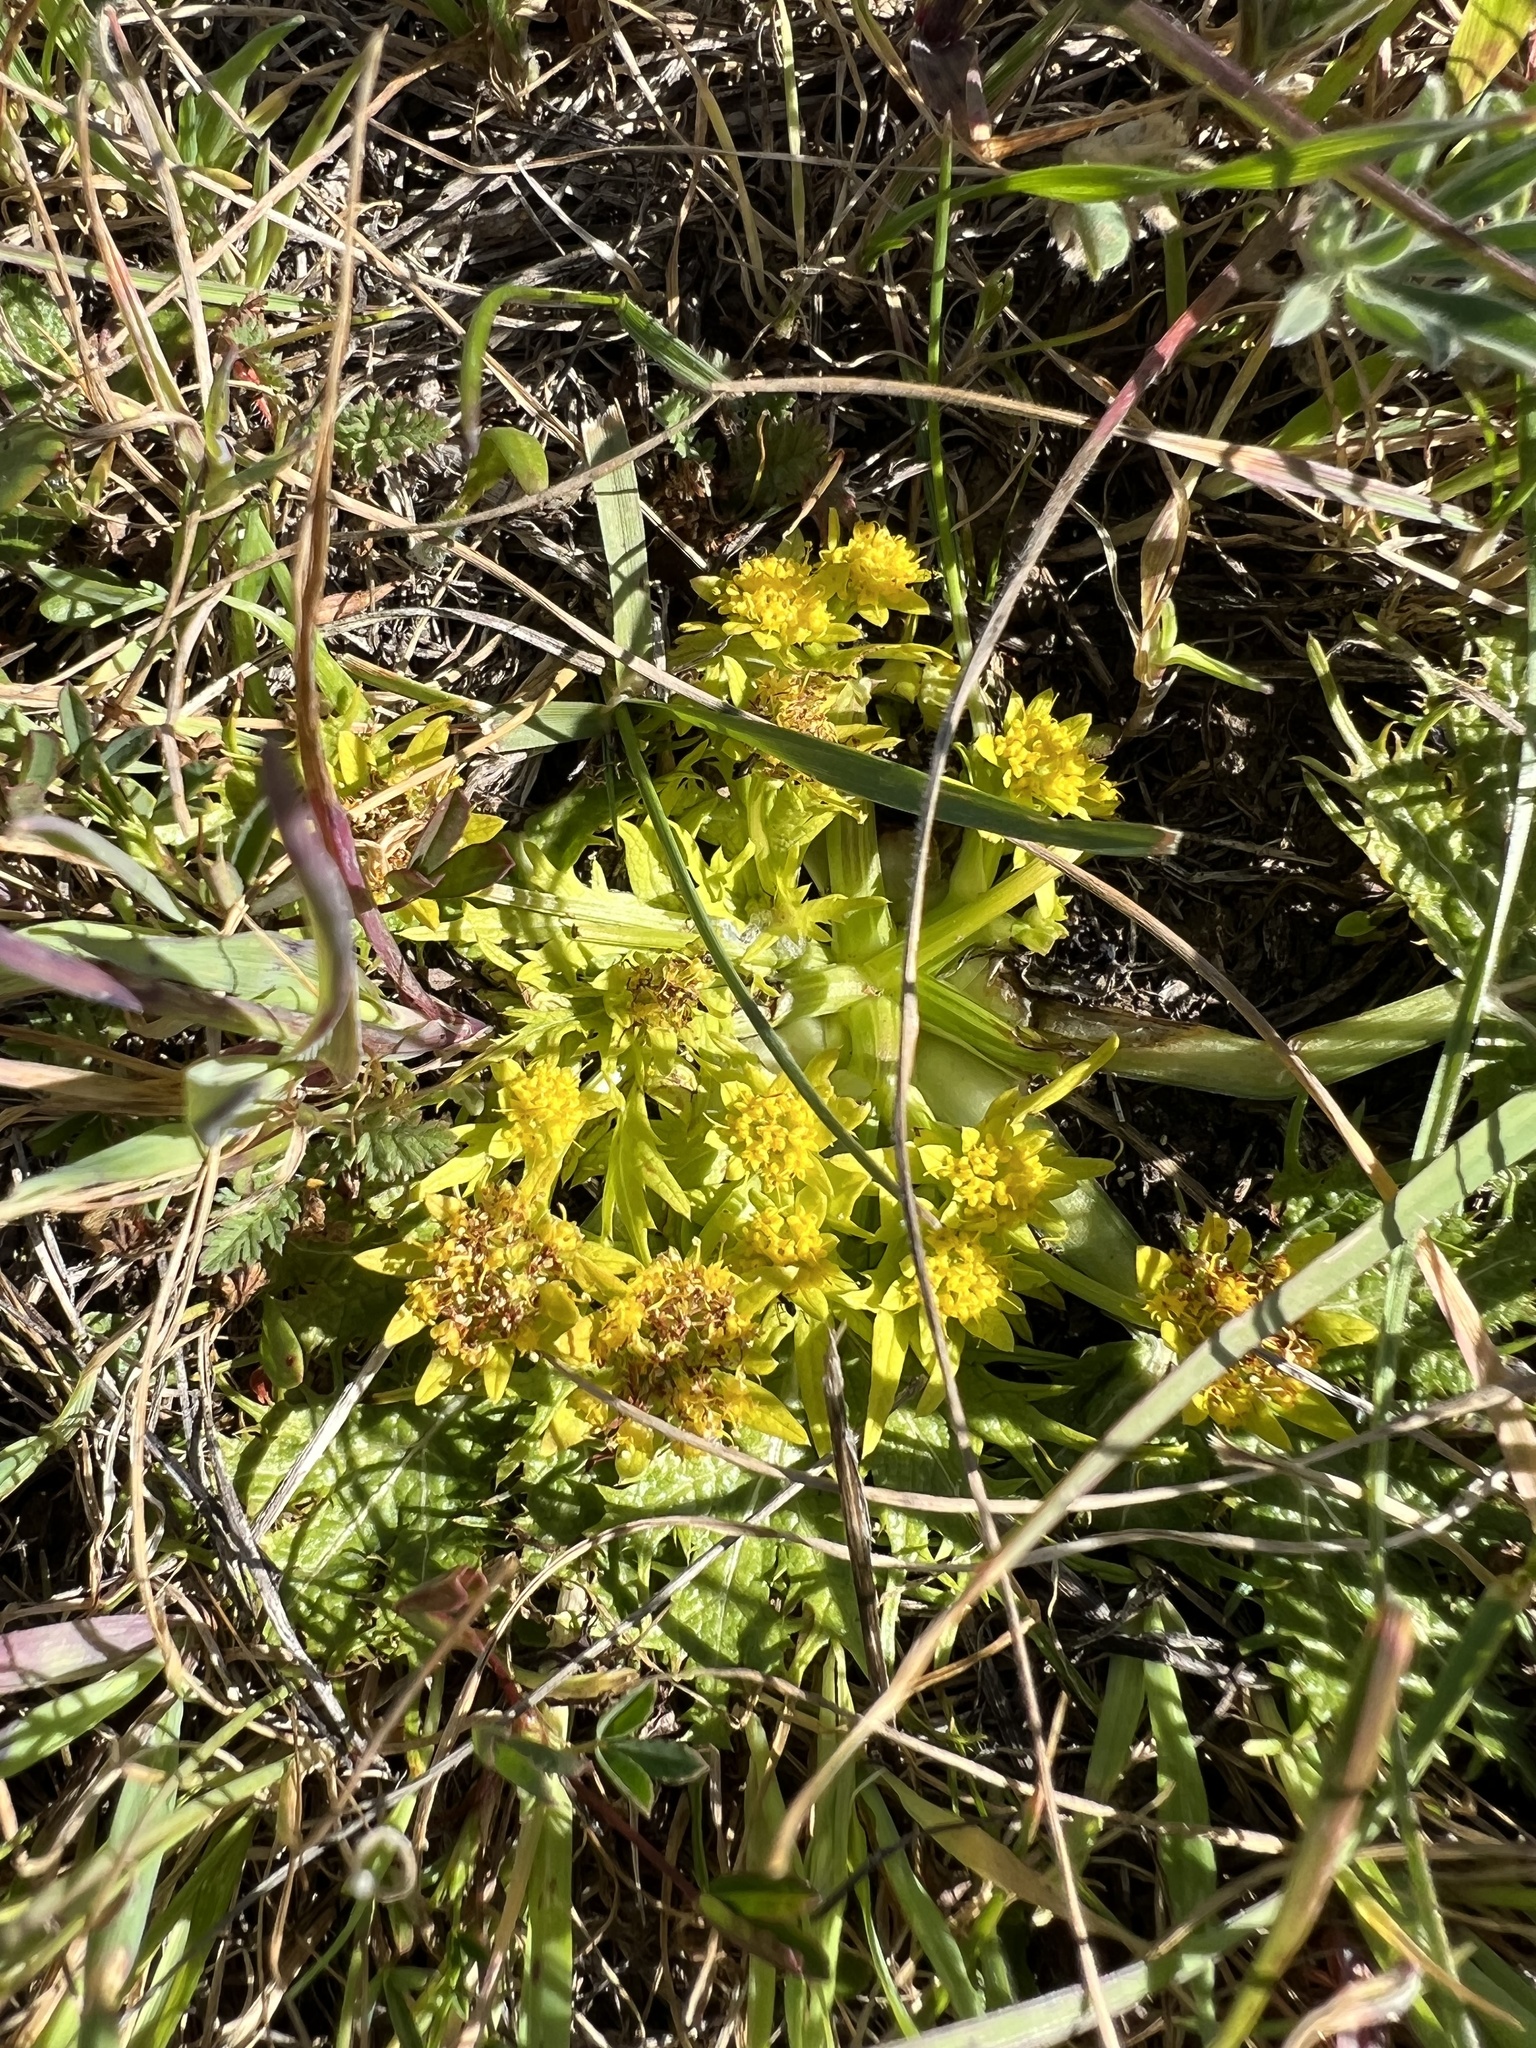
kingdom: Plantae
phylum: Tracheophyta
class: Magnoliopsida
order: Apiales
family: Apiaceae
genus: Sanicula
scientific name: Sanicula arctopoides
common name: Footsteps-of-spring
